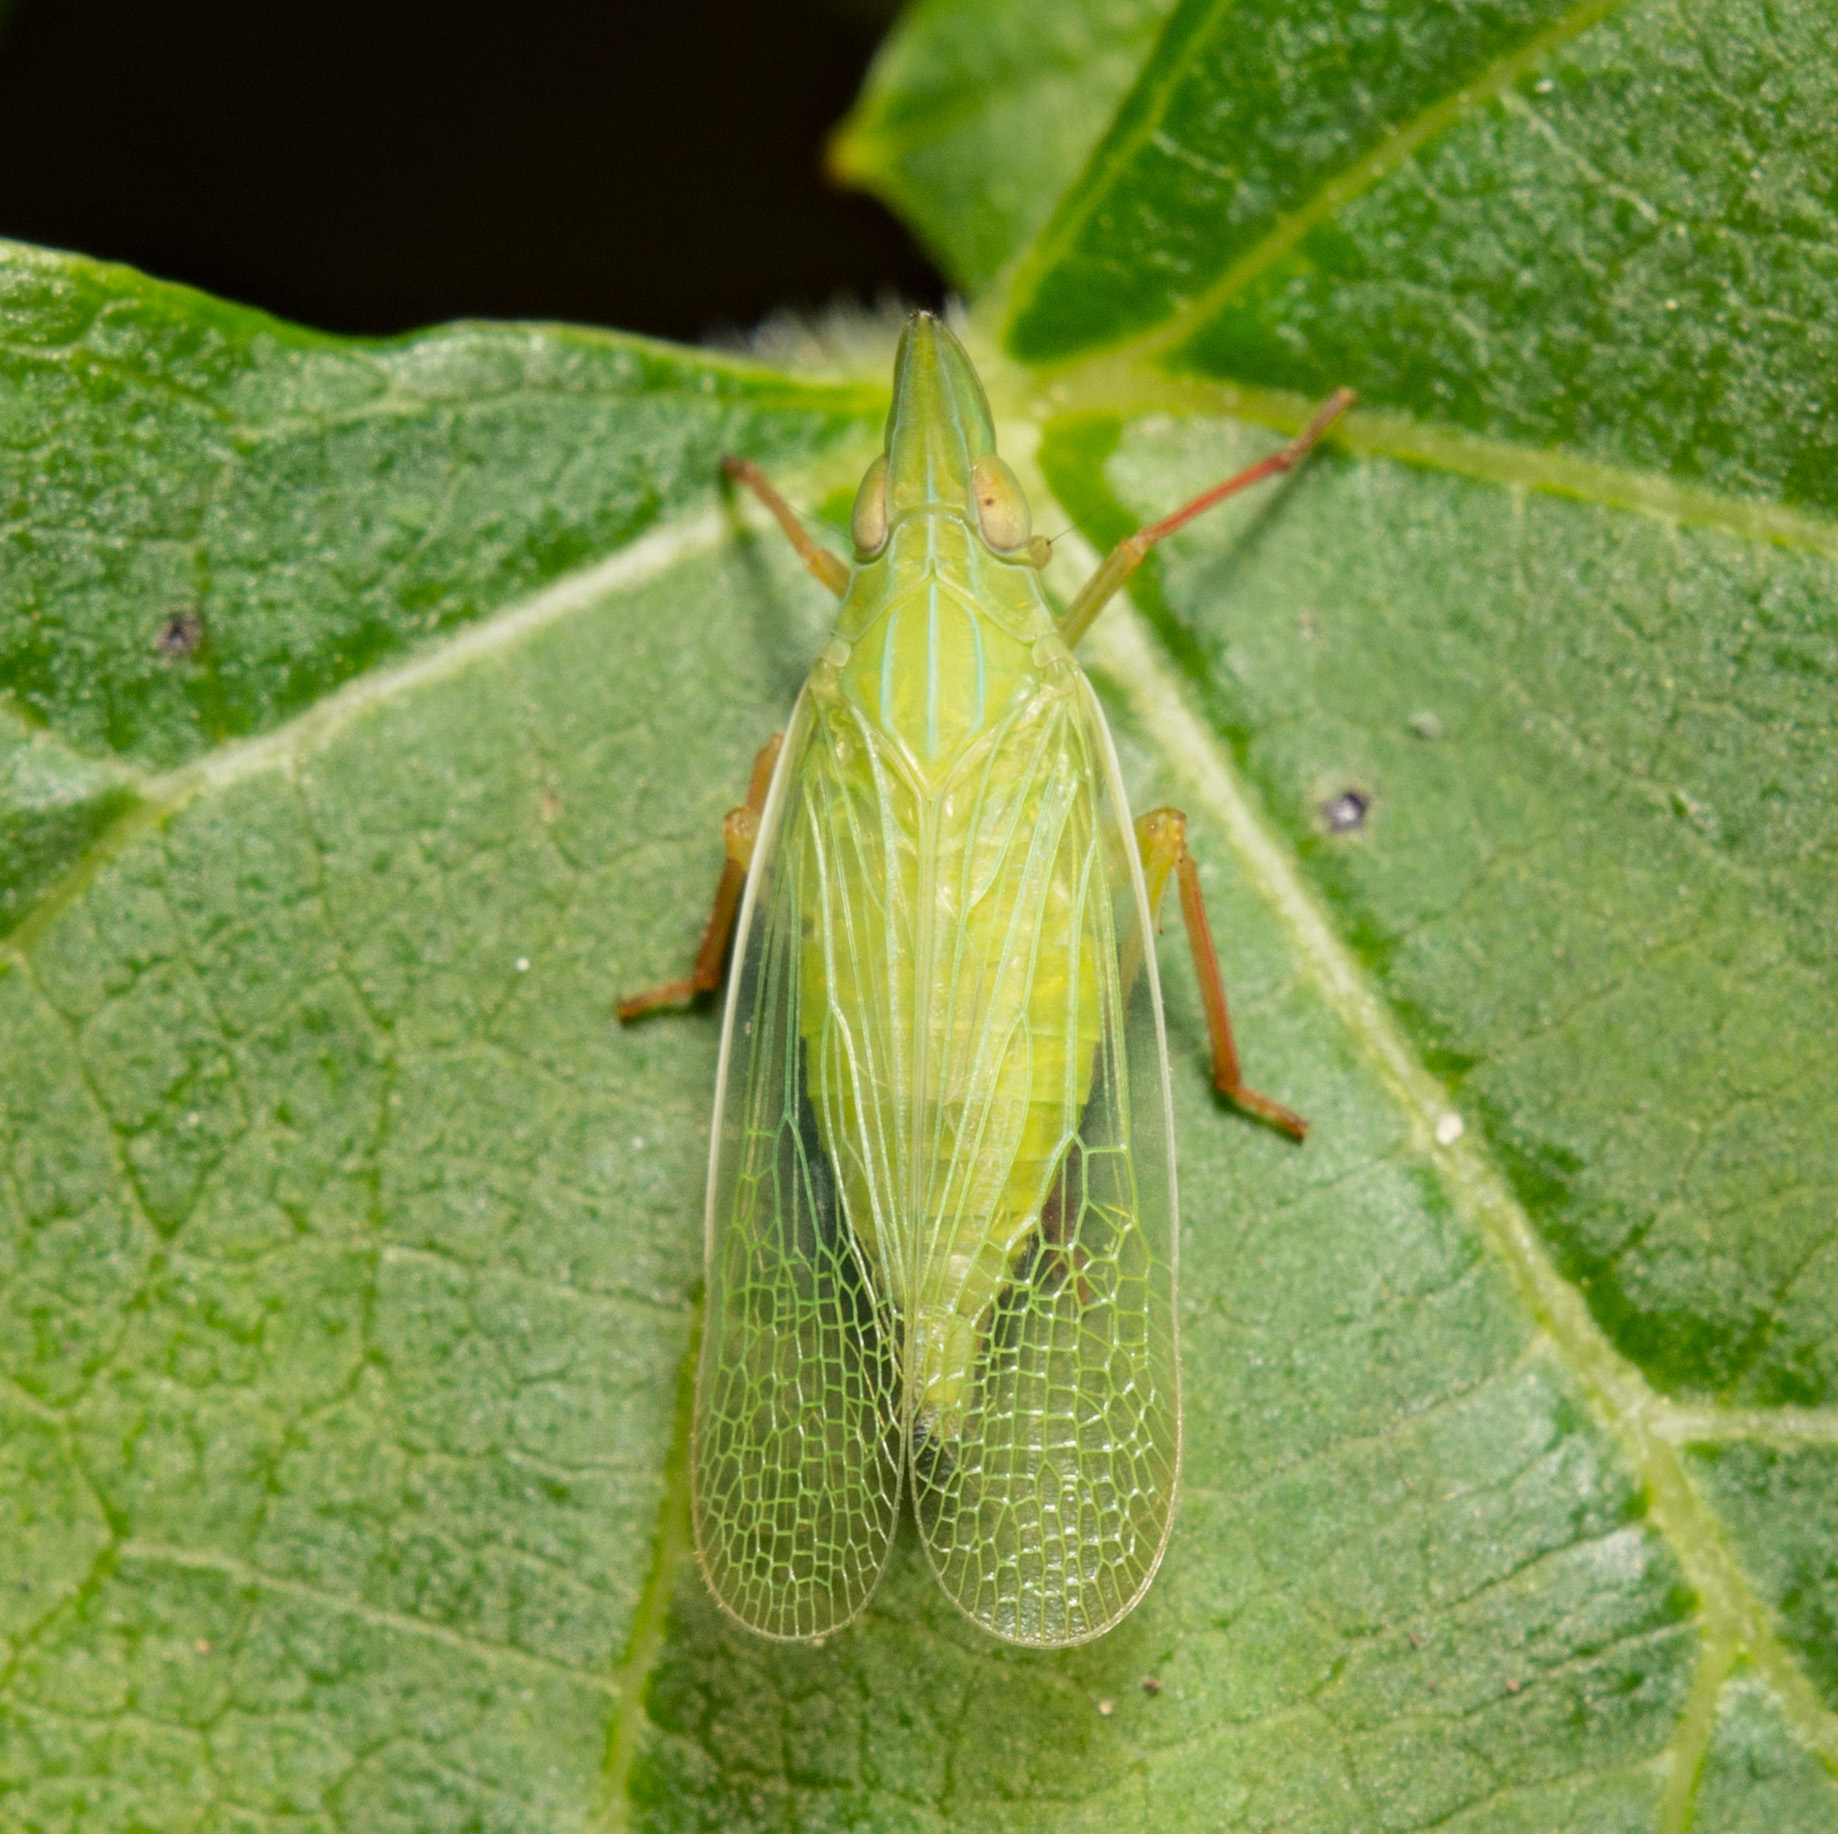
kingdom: Animalia
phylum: Arthropoda
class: Insecta
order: Hemiptera
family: Dictyopharidae
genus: Rhynchomitra
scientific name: Rhynchomitra recurva
